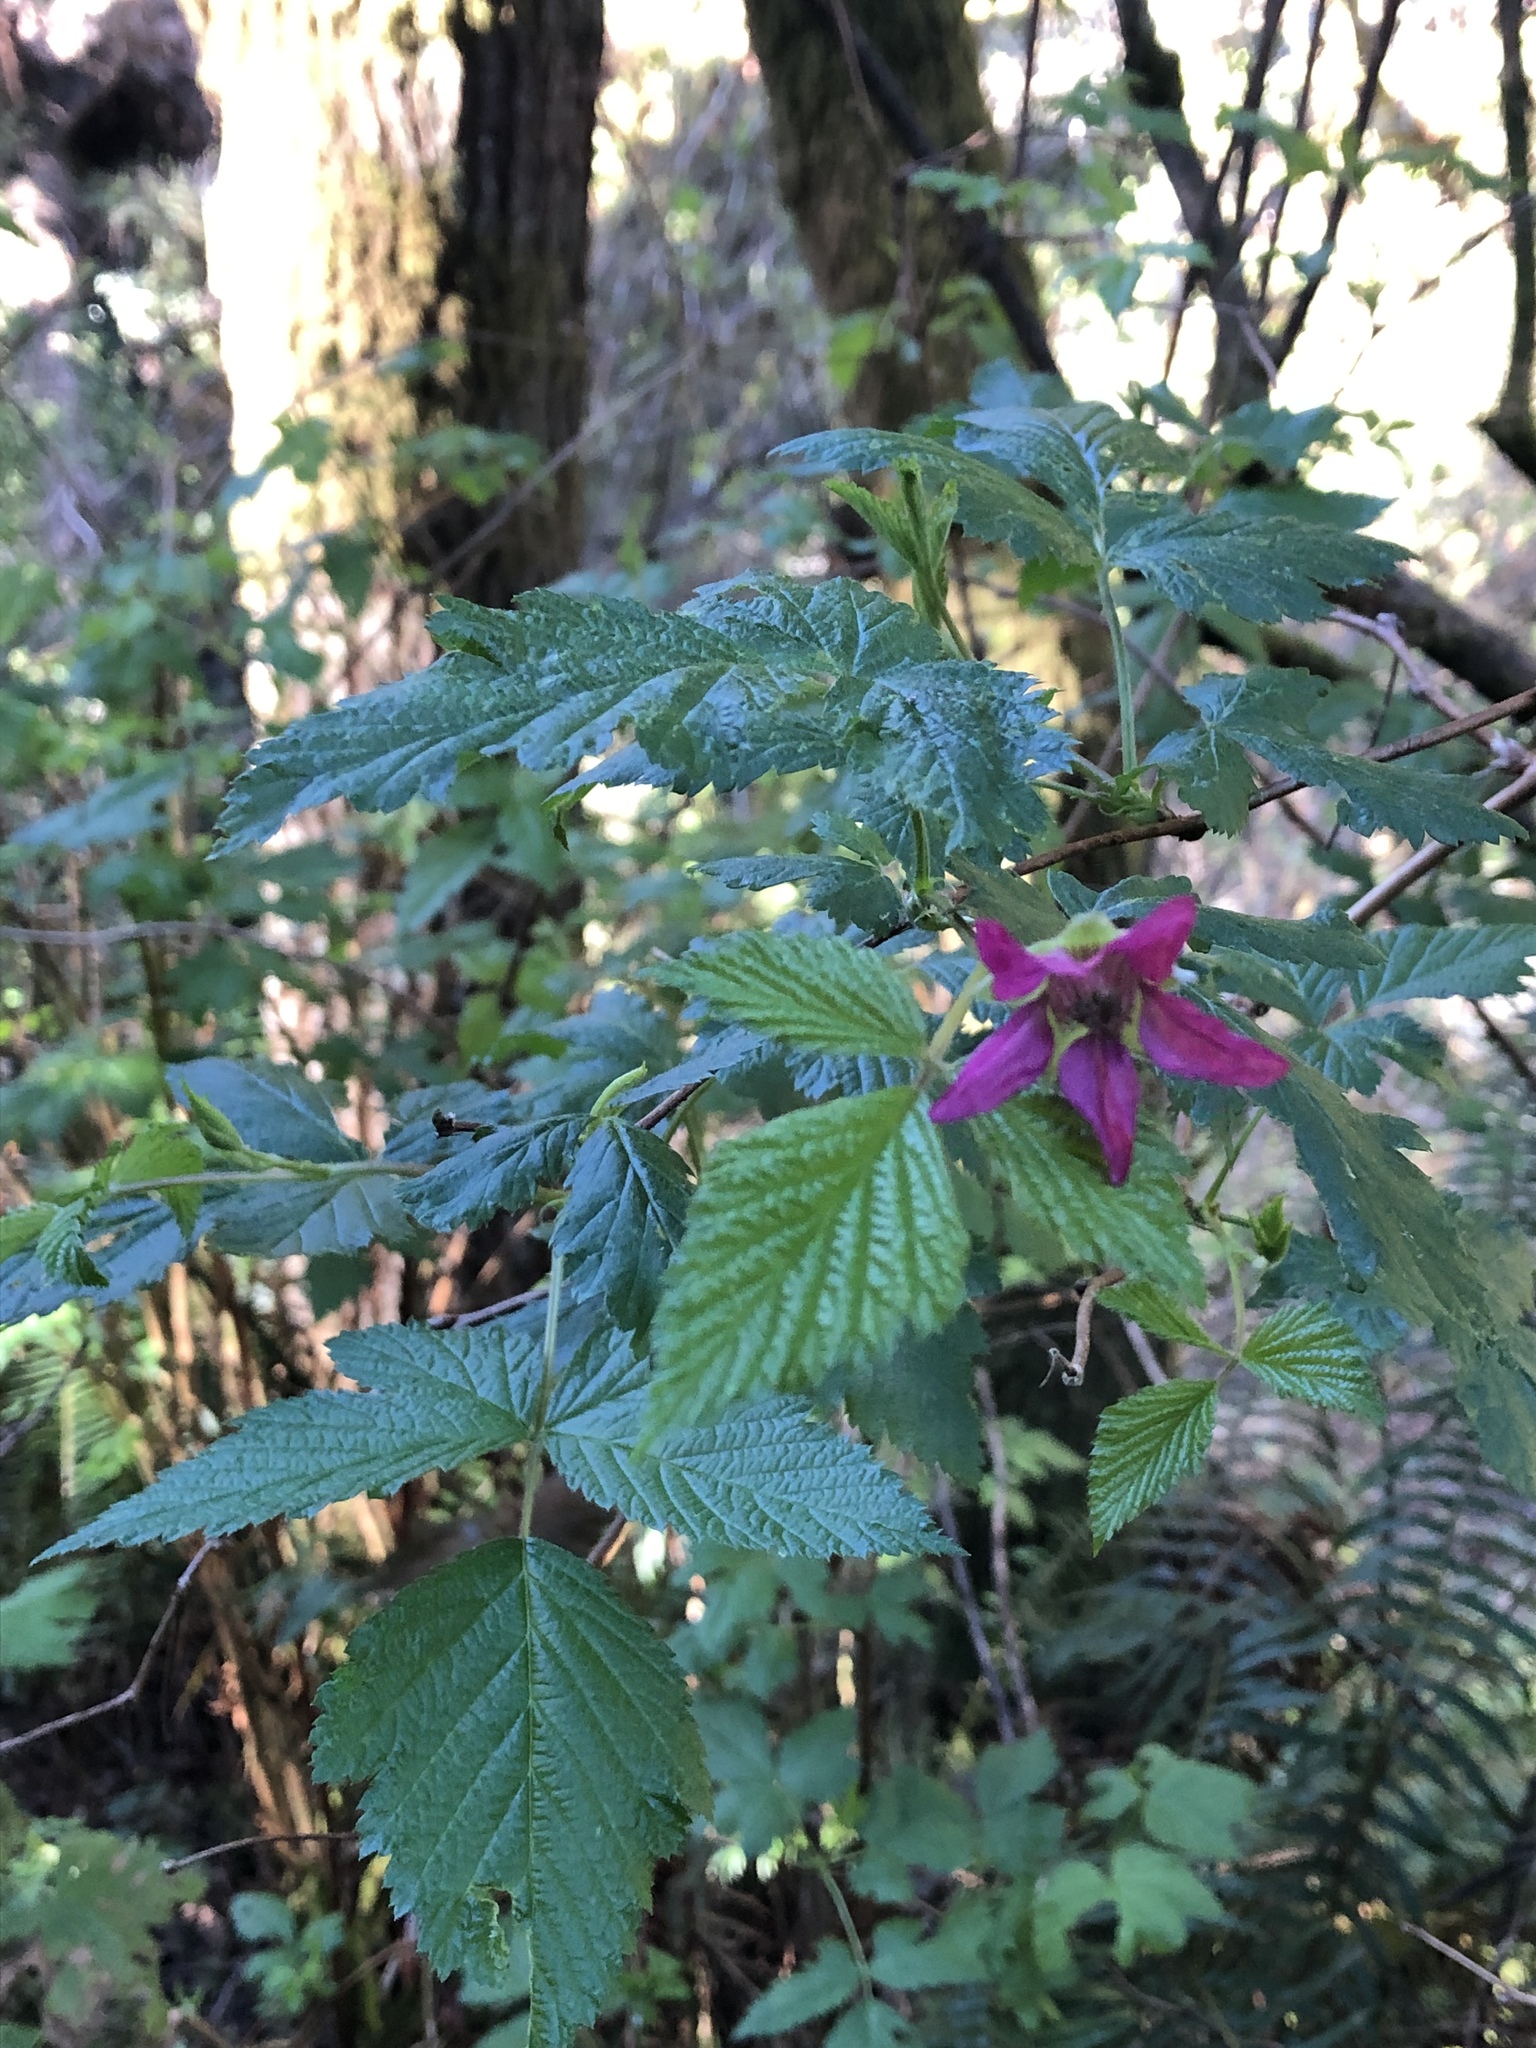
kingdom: Plantae
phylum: Tracheophyta
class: Magnoliopsida
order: Rosales
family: Rosaceae
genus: Rubus
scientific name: Rubus spectabilis
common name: Salmonberry
